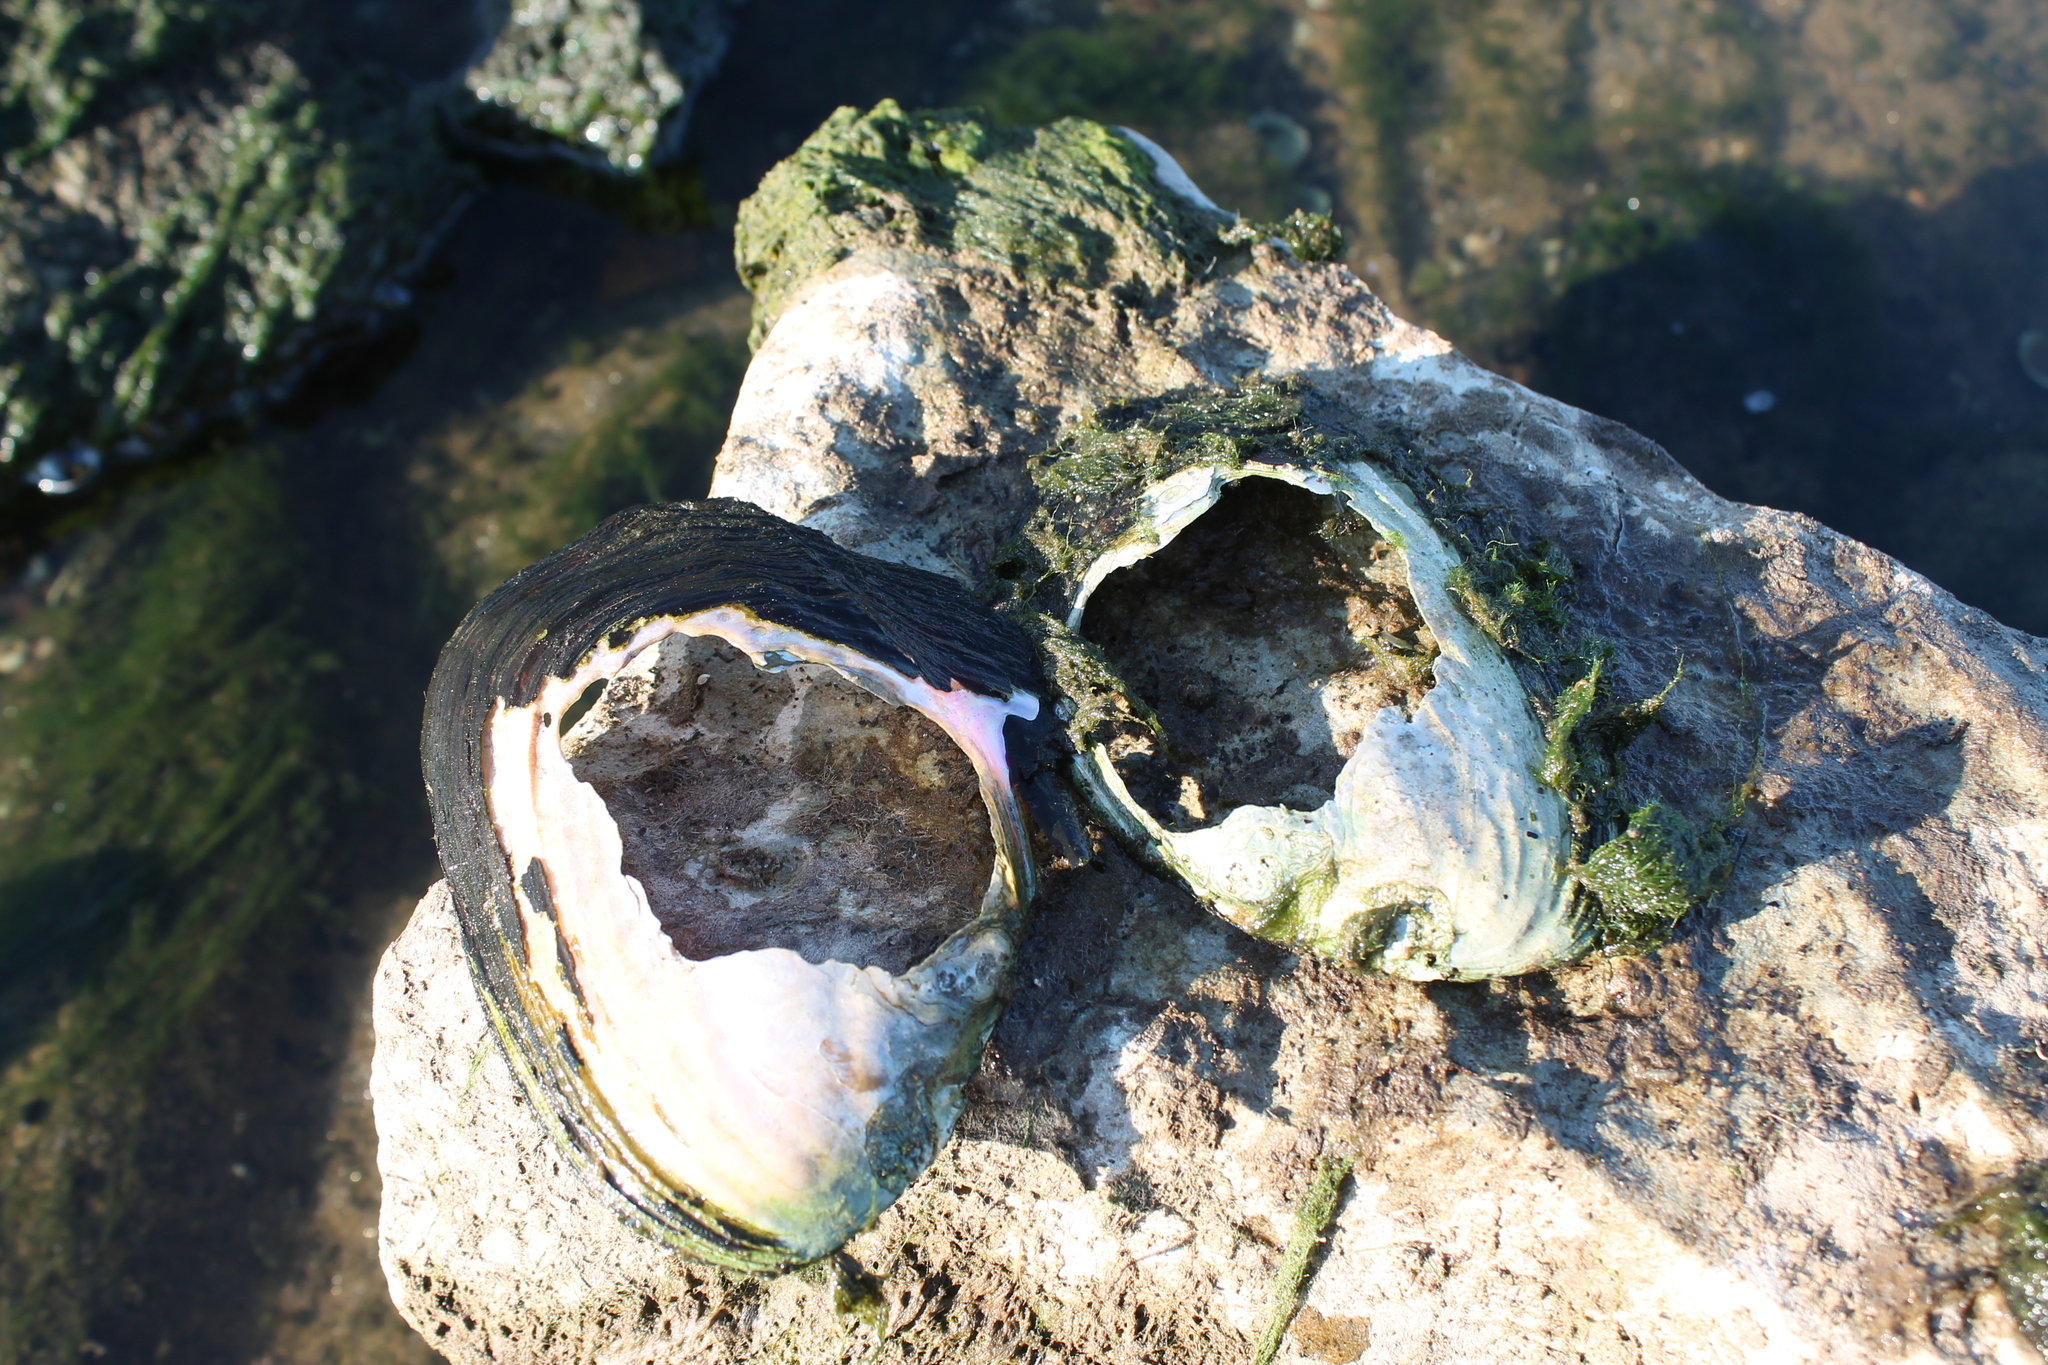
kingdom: Animalia
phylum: Mollusca
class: Bivalvia
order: Unionida
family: Unionidae
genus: Potamilus
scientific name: Potamilus alatus
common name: Pink heelsplitter
